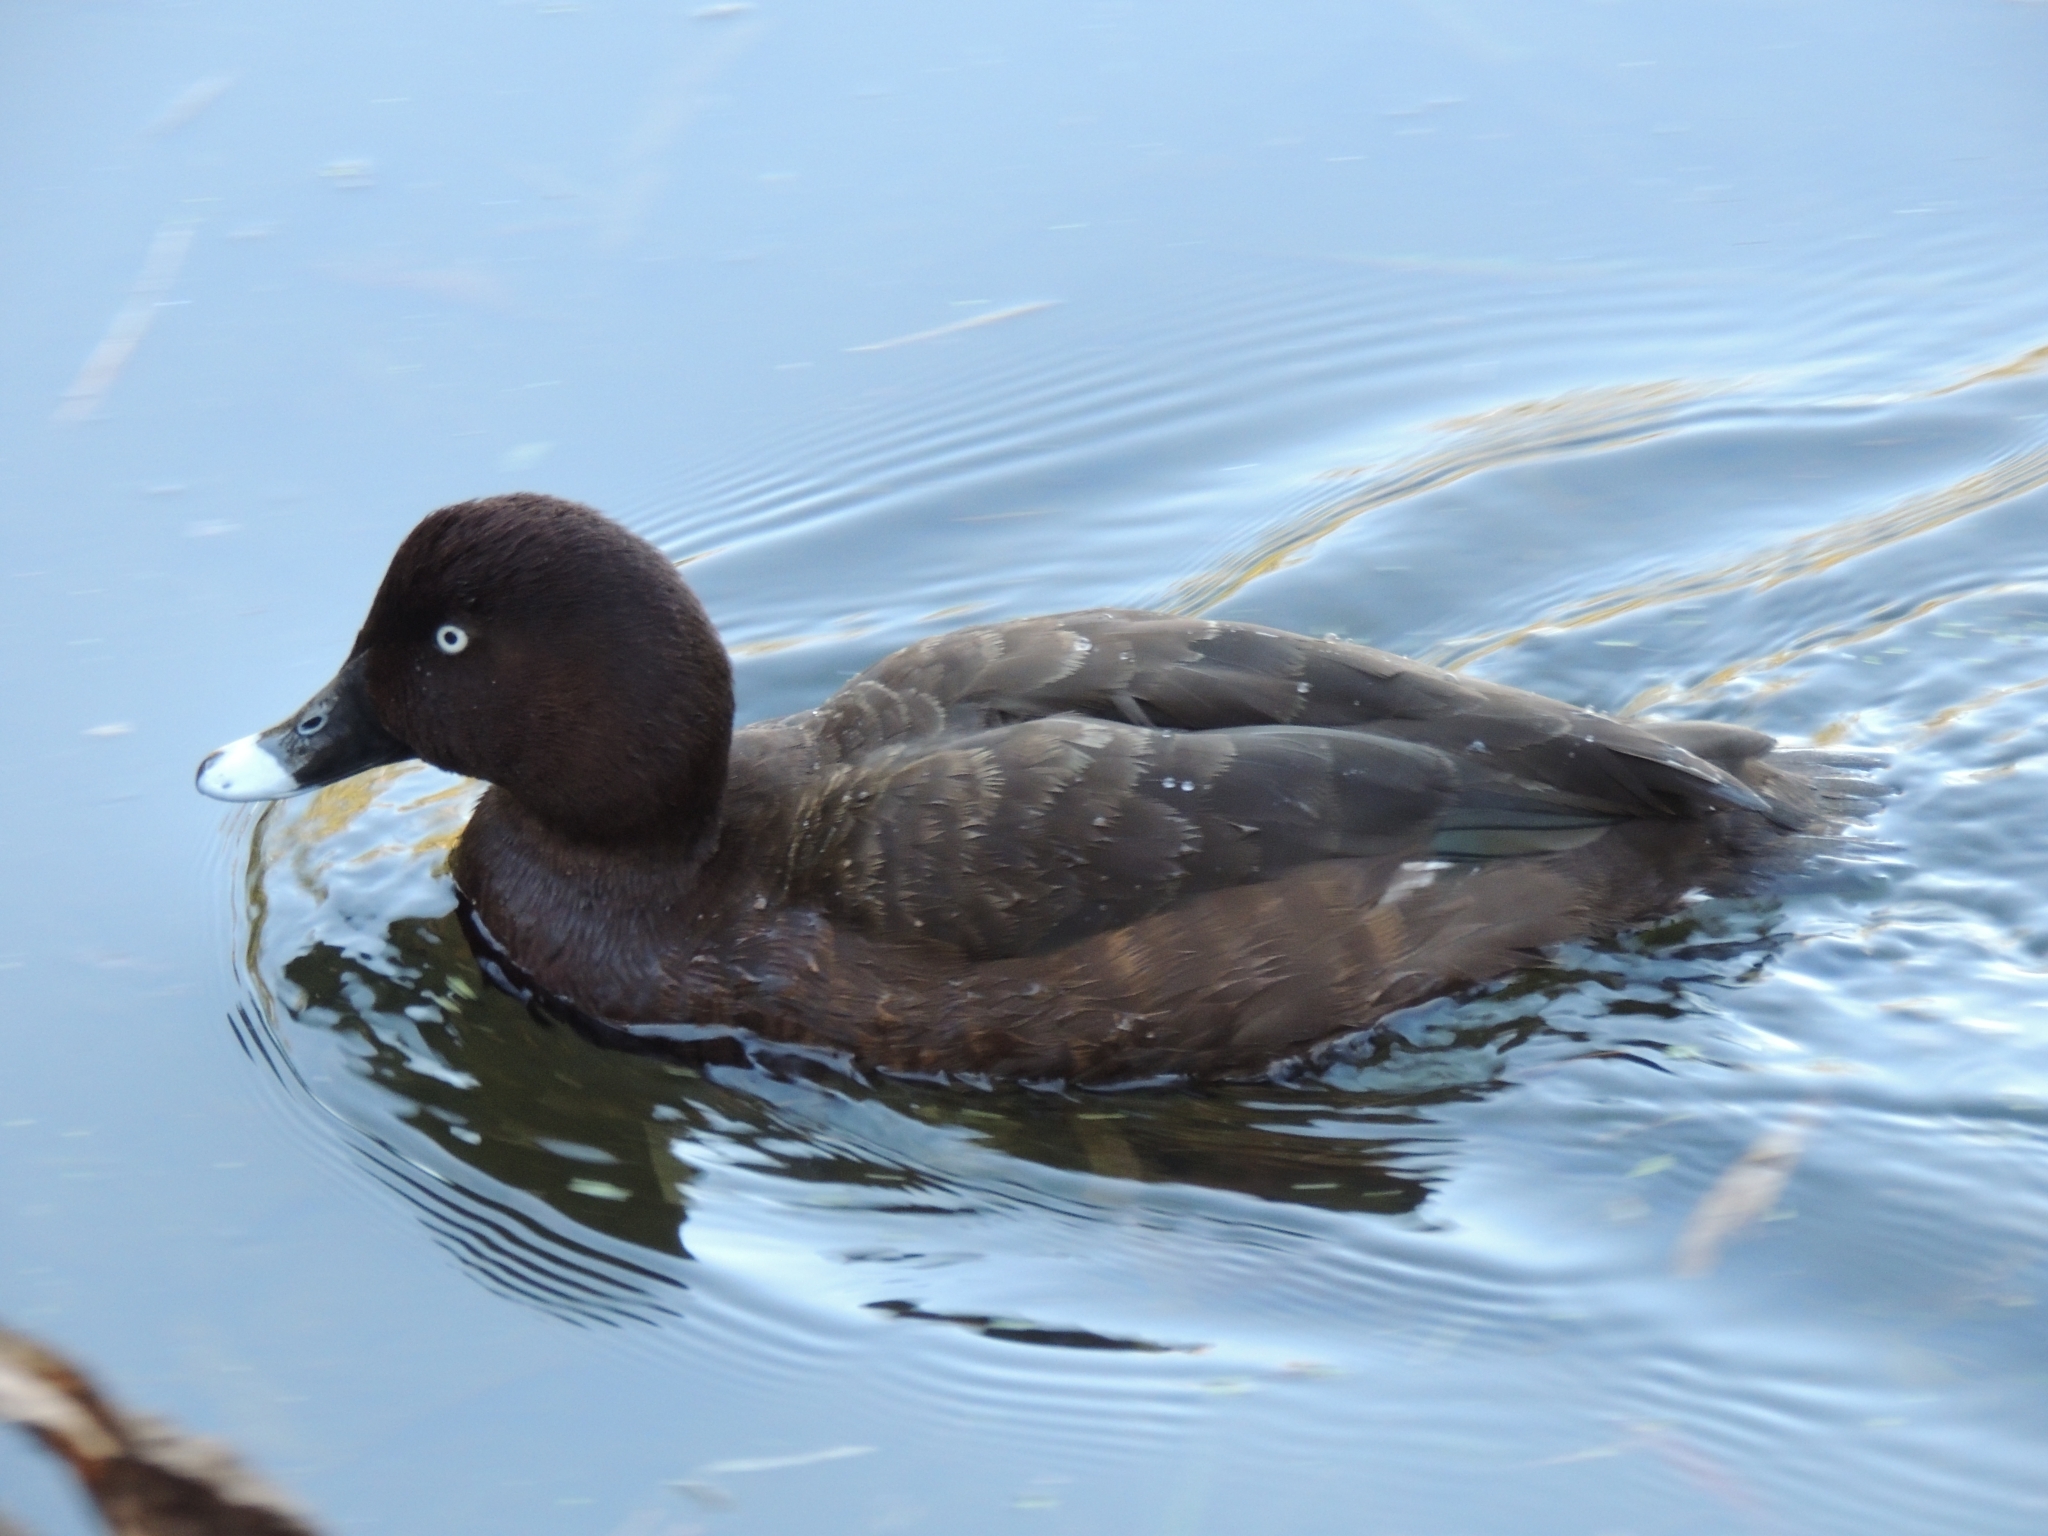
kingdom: Animalia
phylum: Chordata
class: Aves
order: Anseriformes
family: Anatidae
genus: Aythya
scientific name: Aythya australis
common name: Hardhead
